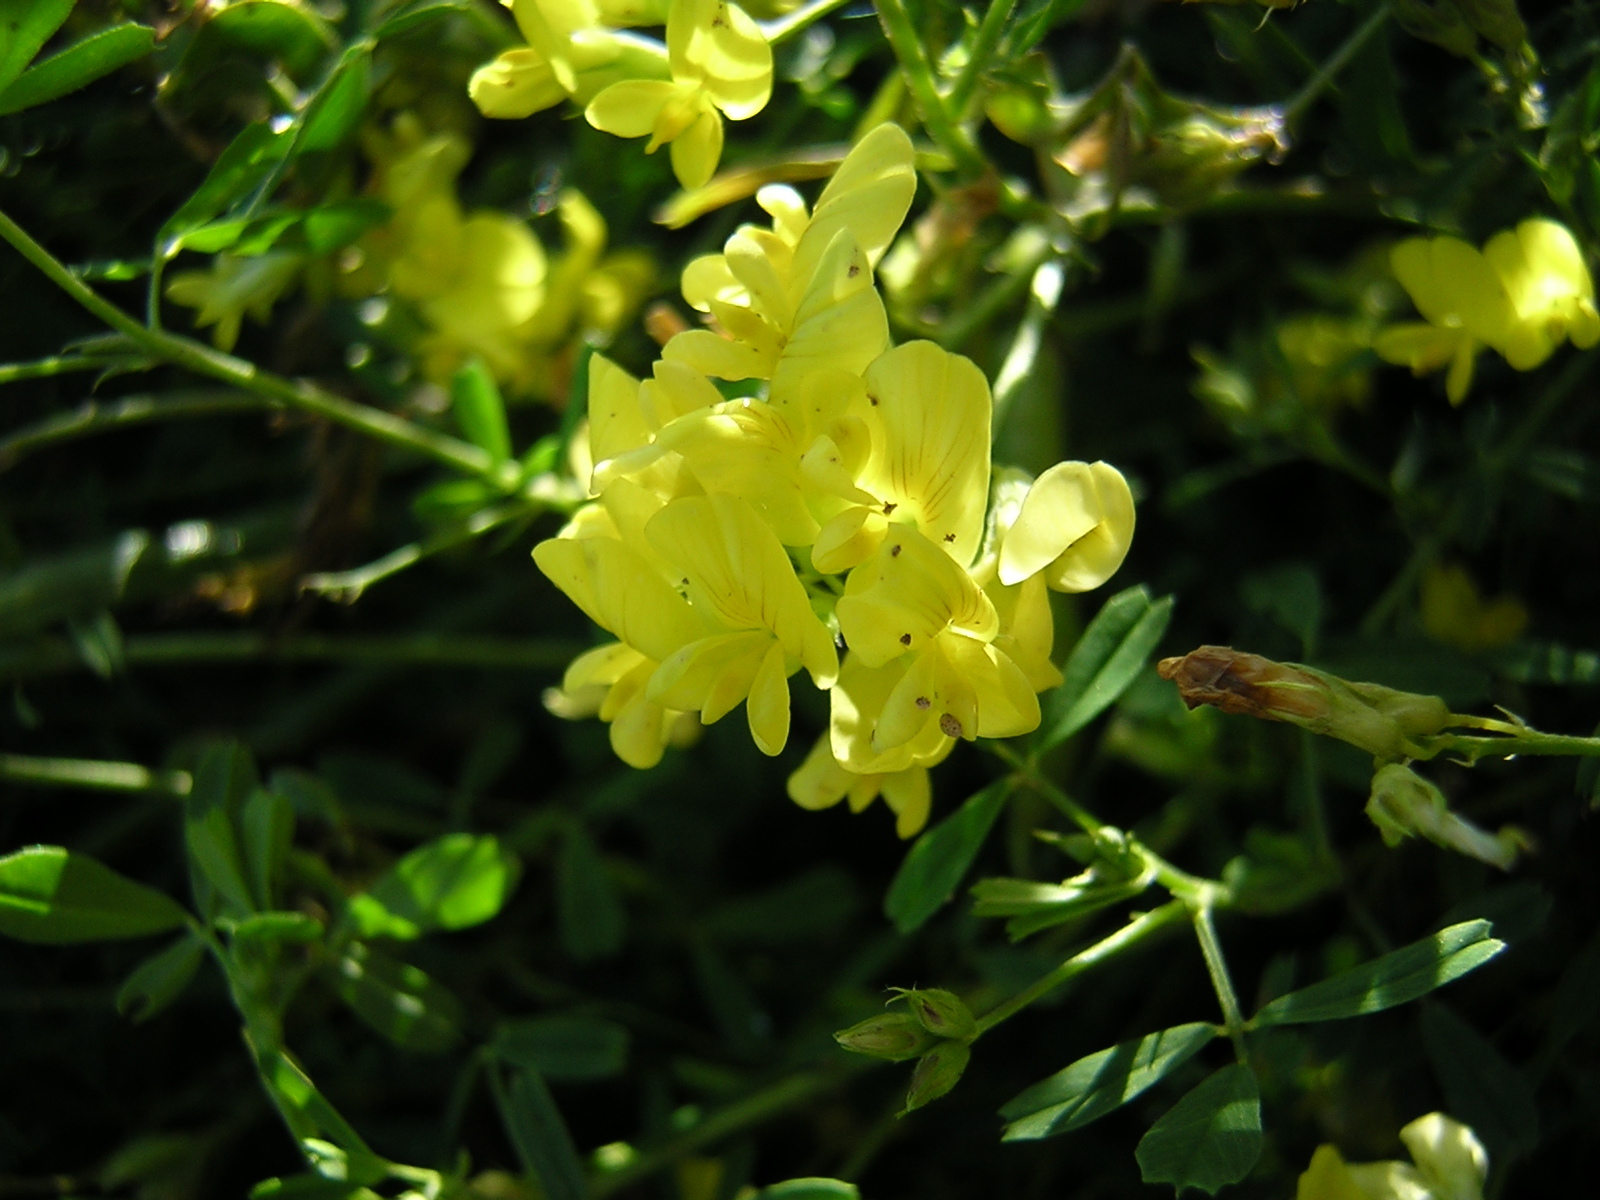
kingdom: Plantae
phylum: Tracheophyta
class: Magnoliopsida
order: Fabales
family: Fabaceae
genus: Medicago
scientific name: Medicago falcata
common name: Sickle medick
